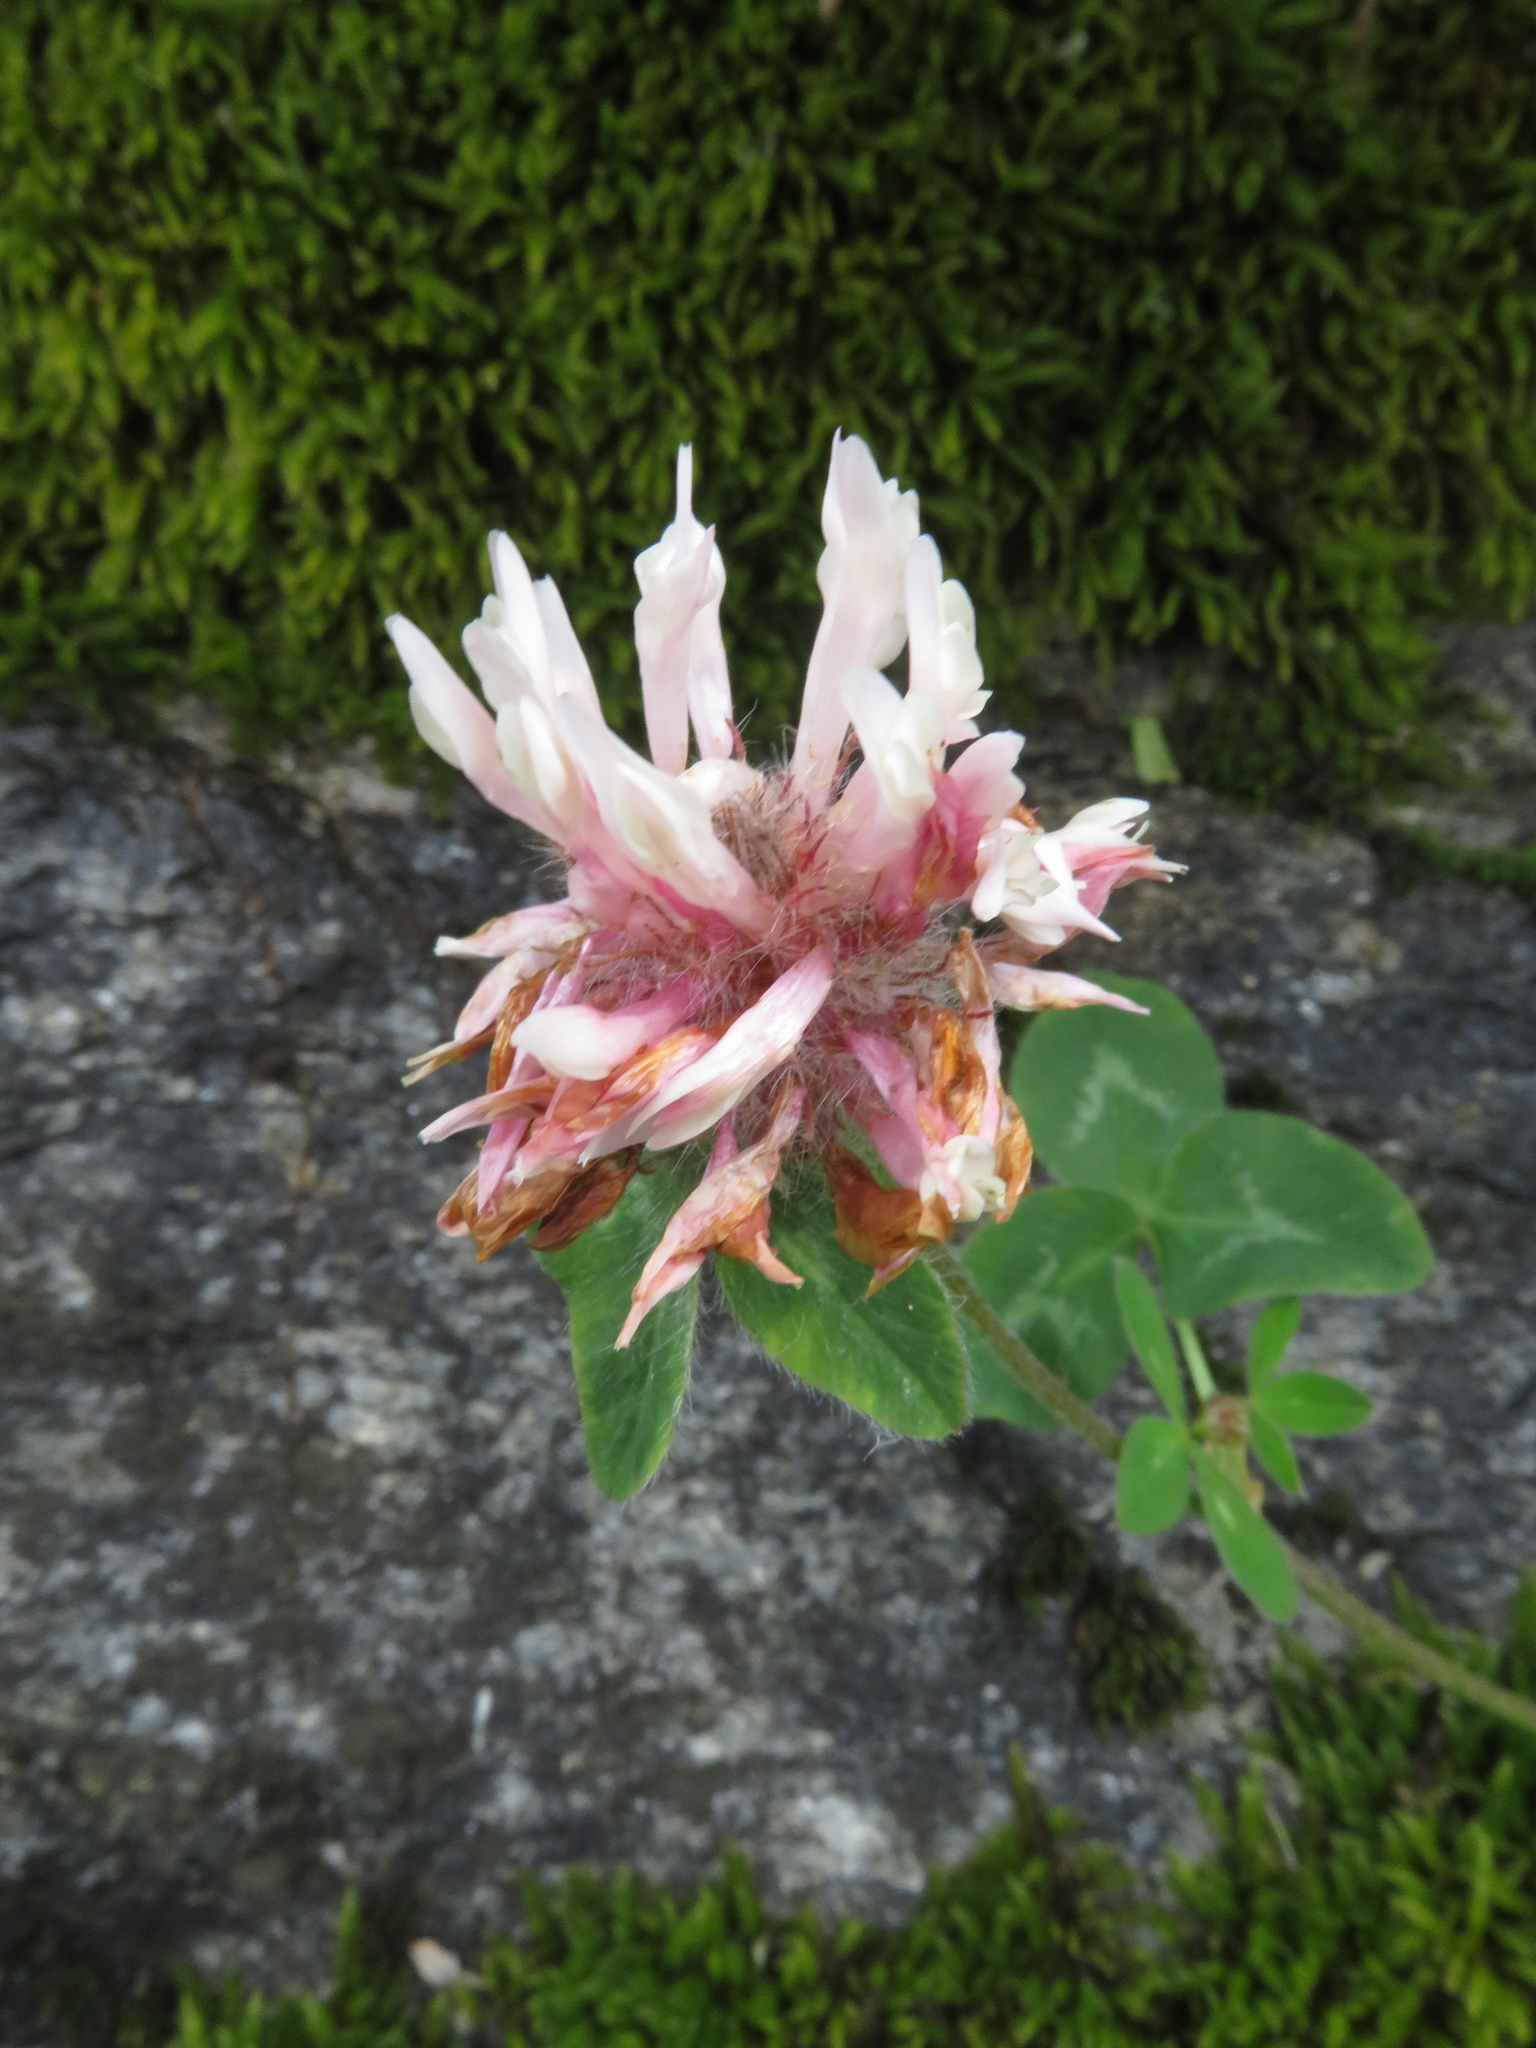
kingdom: Plantae
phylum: Tracheophyta
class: Magnoliopsida
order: Fabales
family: Fabaceae
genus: Trifolium
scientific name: Trifolium pratense
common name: Red clover
